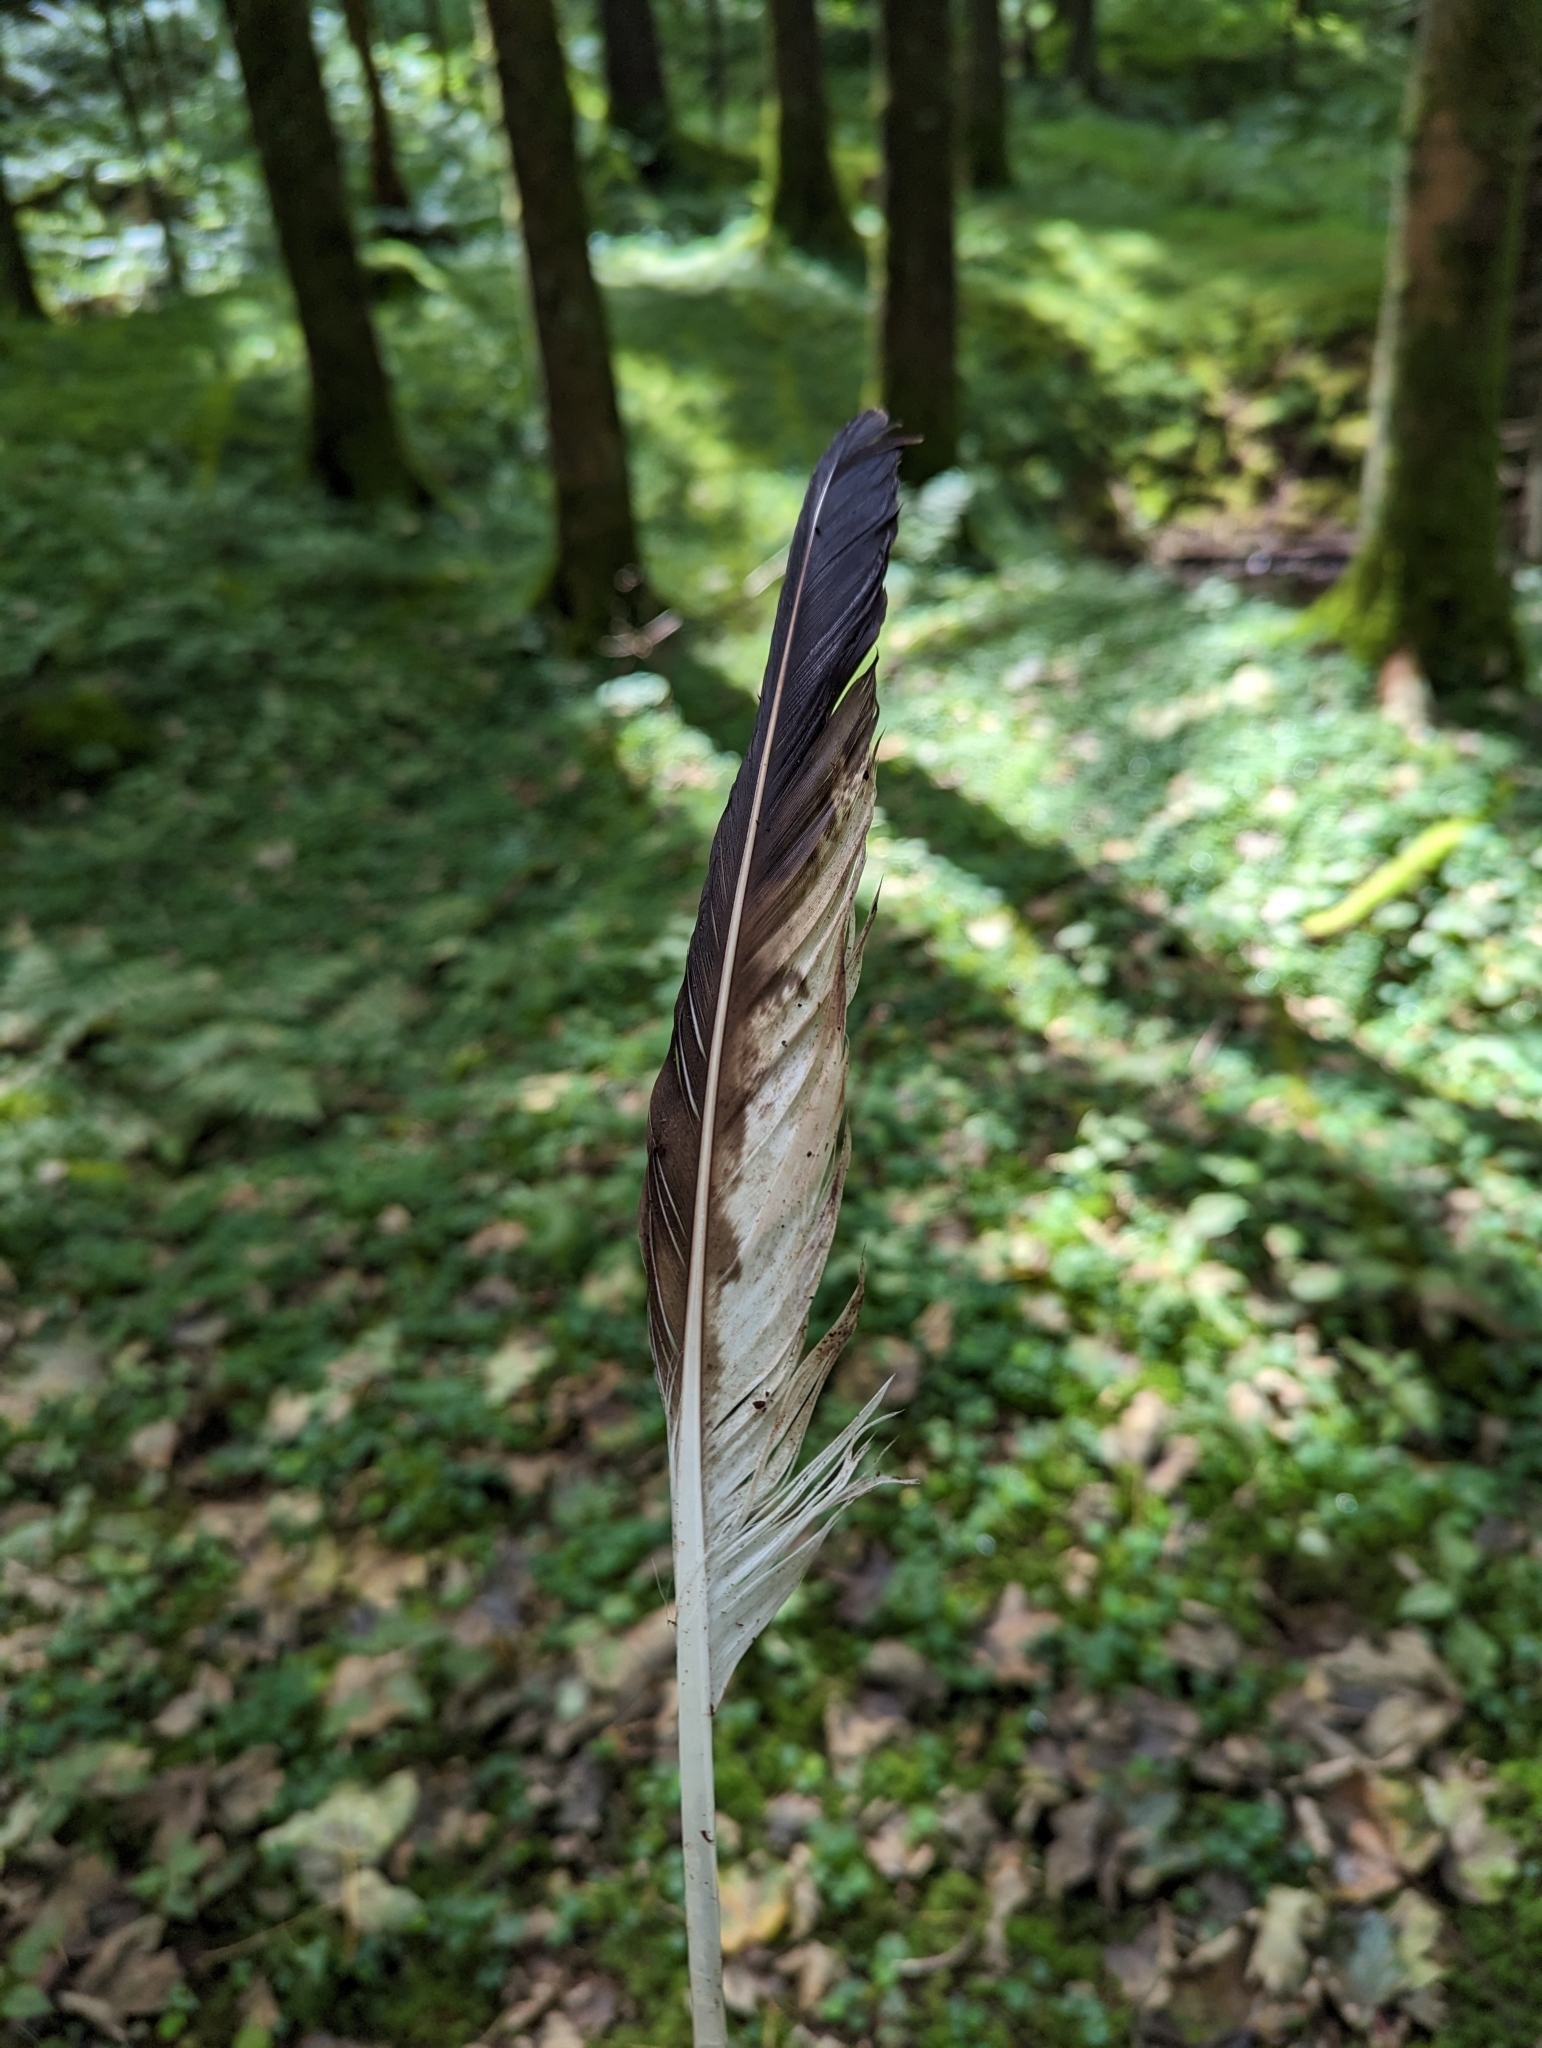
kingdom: Animalia
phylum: Chordata
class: Aves
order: Accipitriformes
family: Accipitridae
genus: Buteo
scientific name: Buteo buteo
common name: Common buzzard
